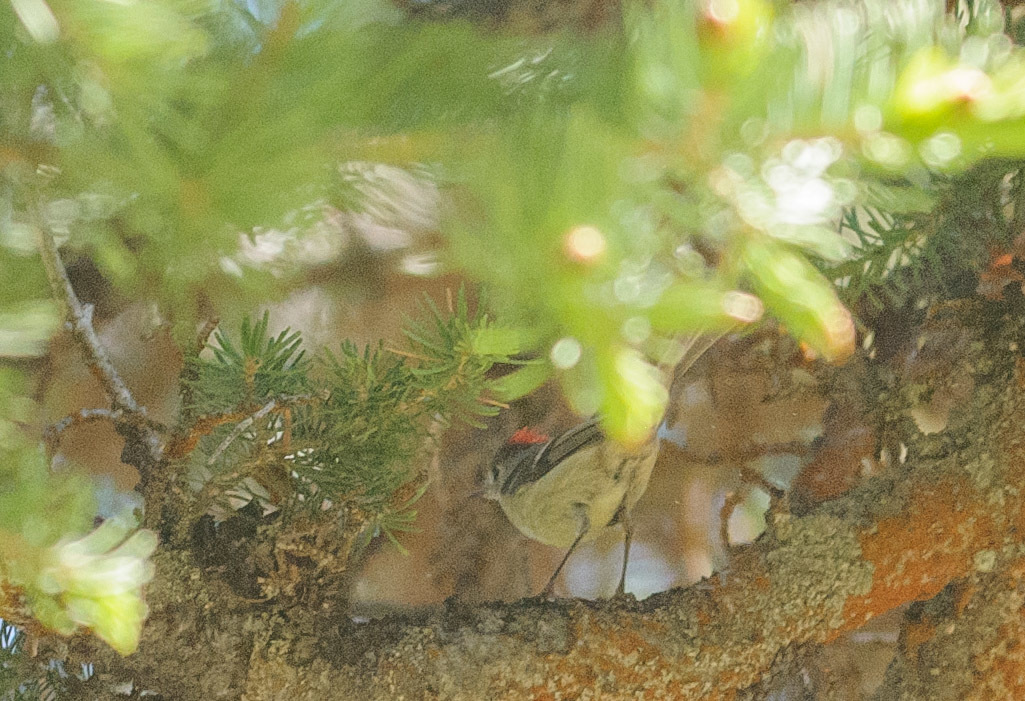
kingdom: Animalia
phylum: Chordata
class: Aves
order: Passeriformes
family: Regulidae
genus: Regulus
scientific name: Regulus calendula
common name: Ruby-crowned kinglet
